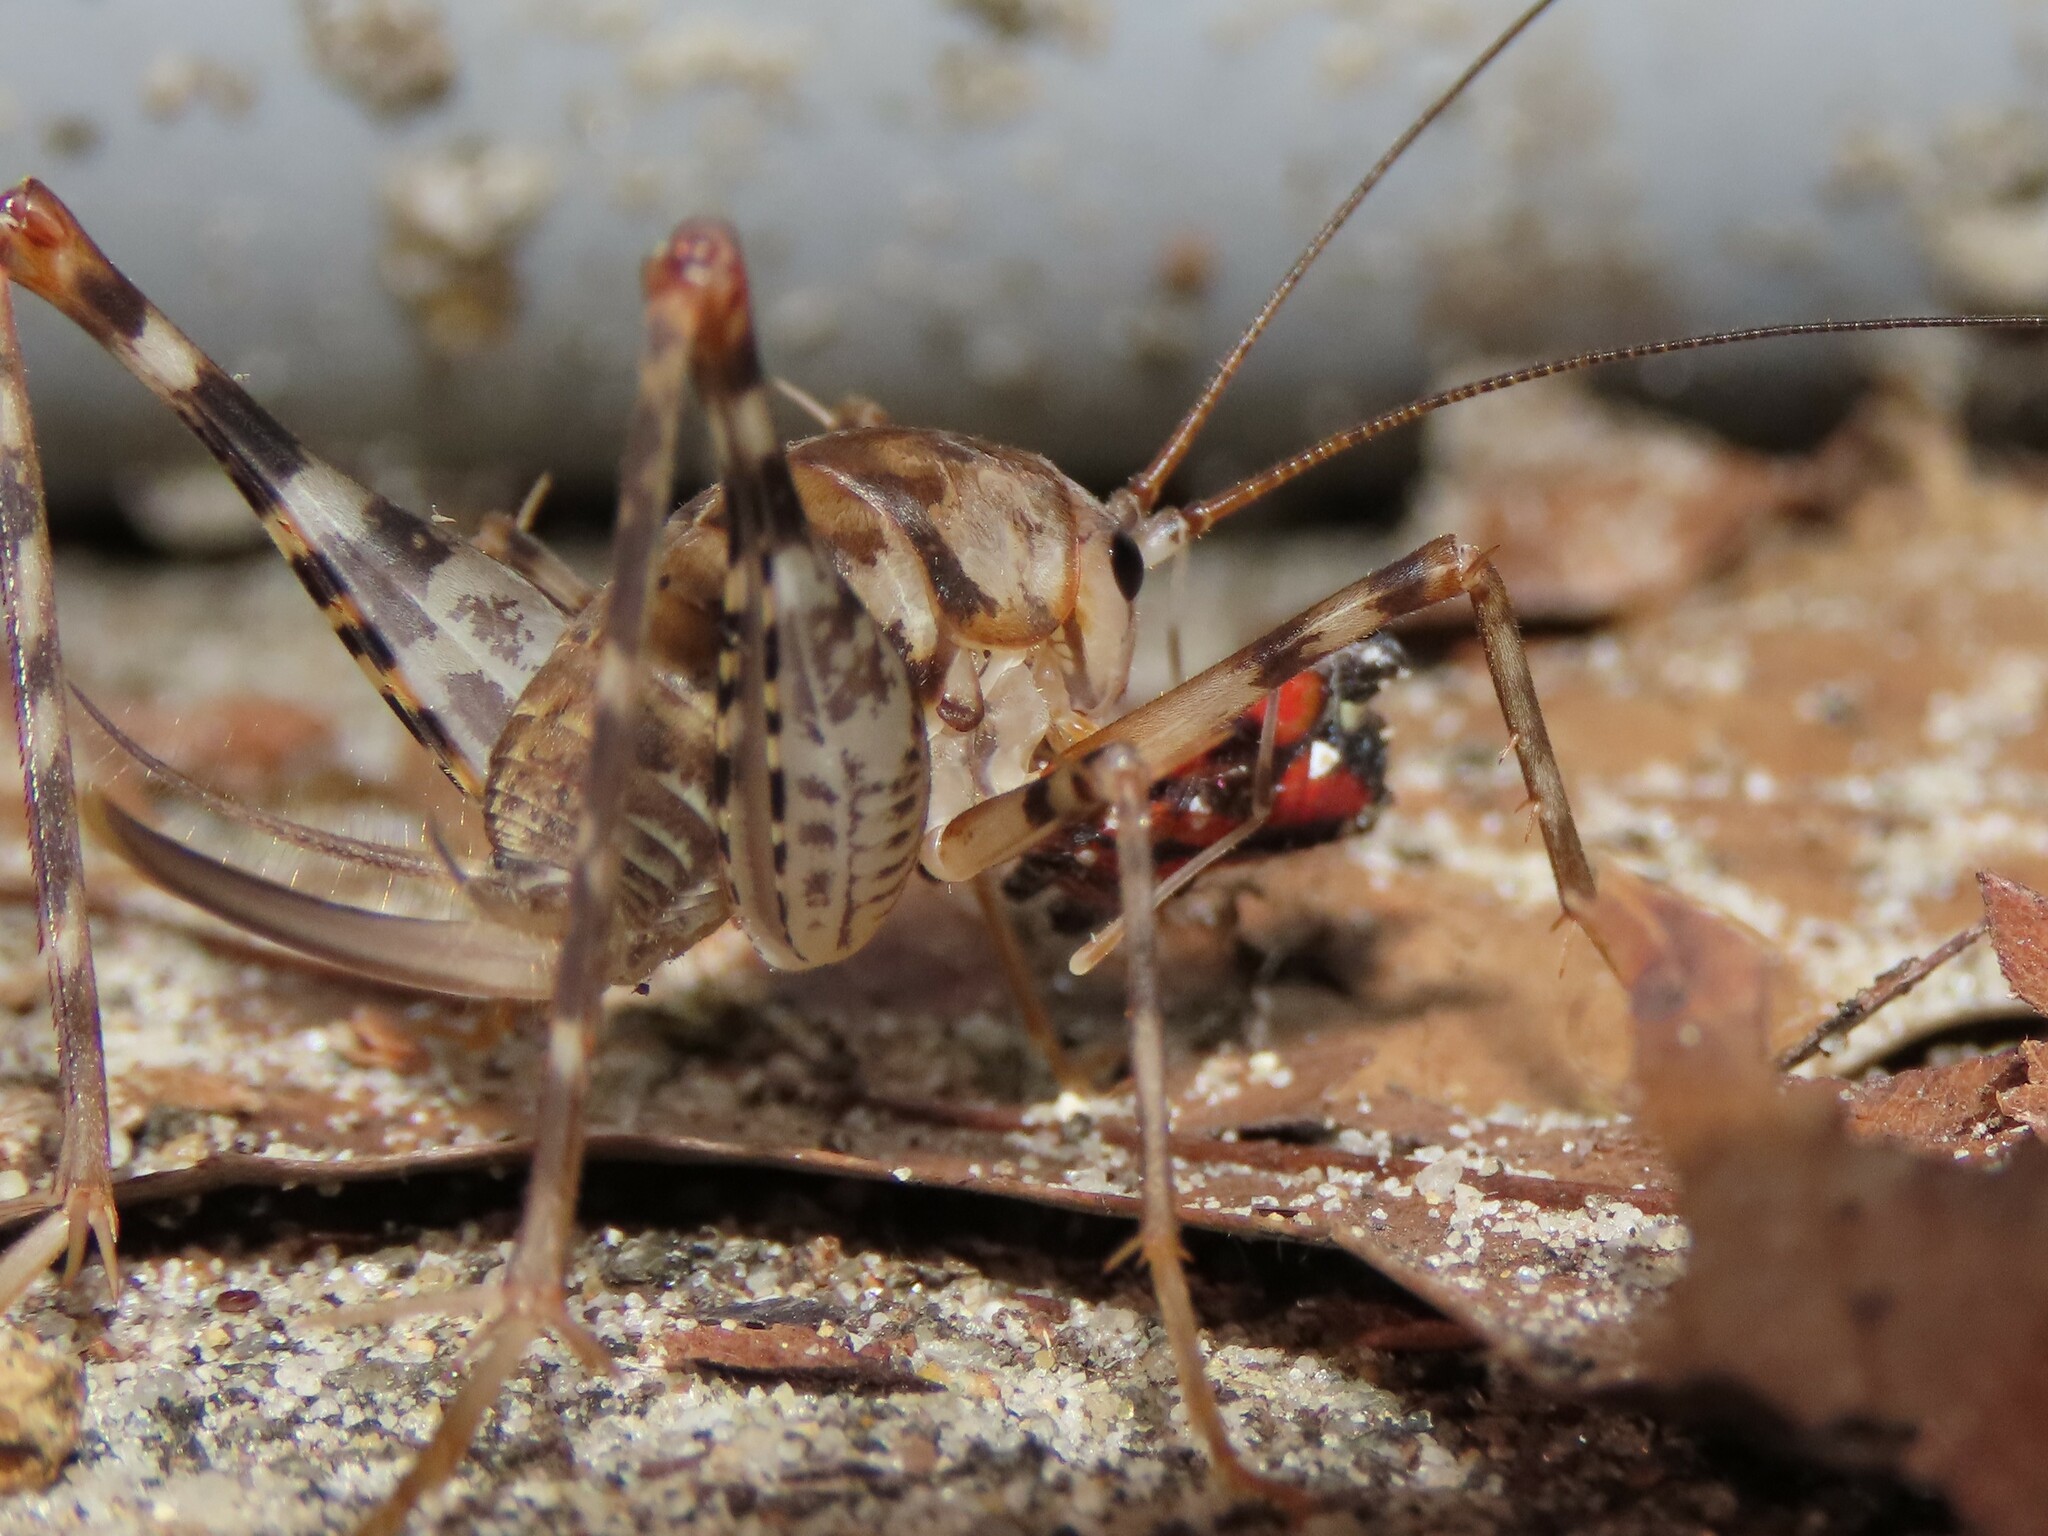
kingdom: Animalia
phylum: Arthropoda
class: Insecta
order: Orthoptera
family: Rhaphidophoridae
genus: Tachycines
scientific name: Tachycines asynamorus
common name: Greenhouse camel cricket
